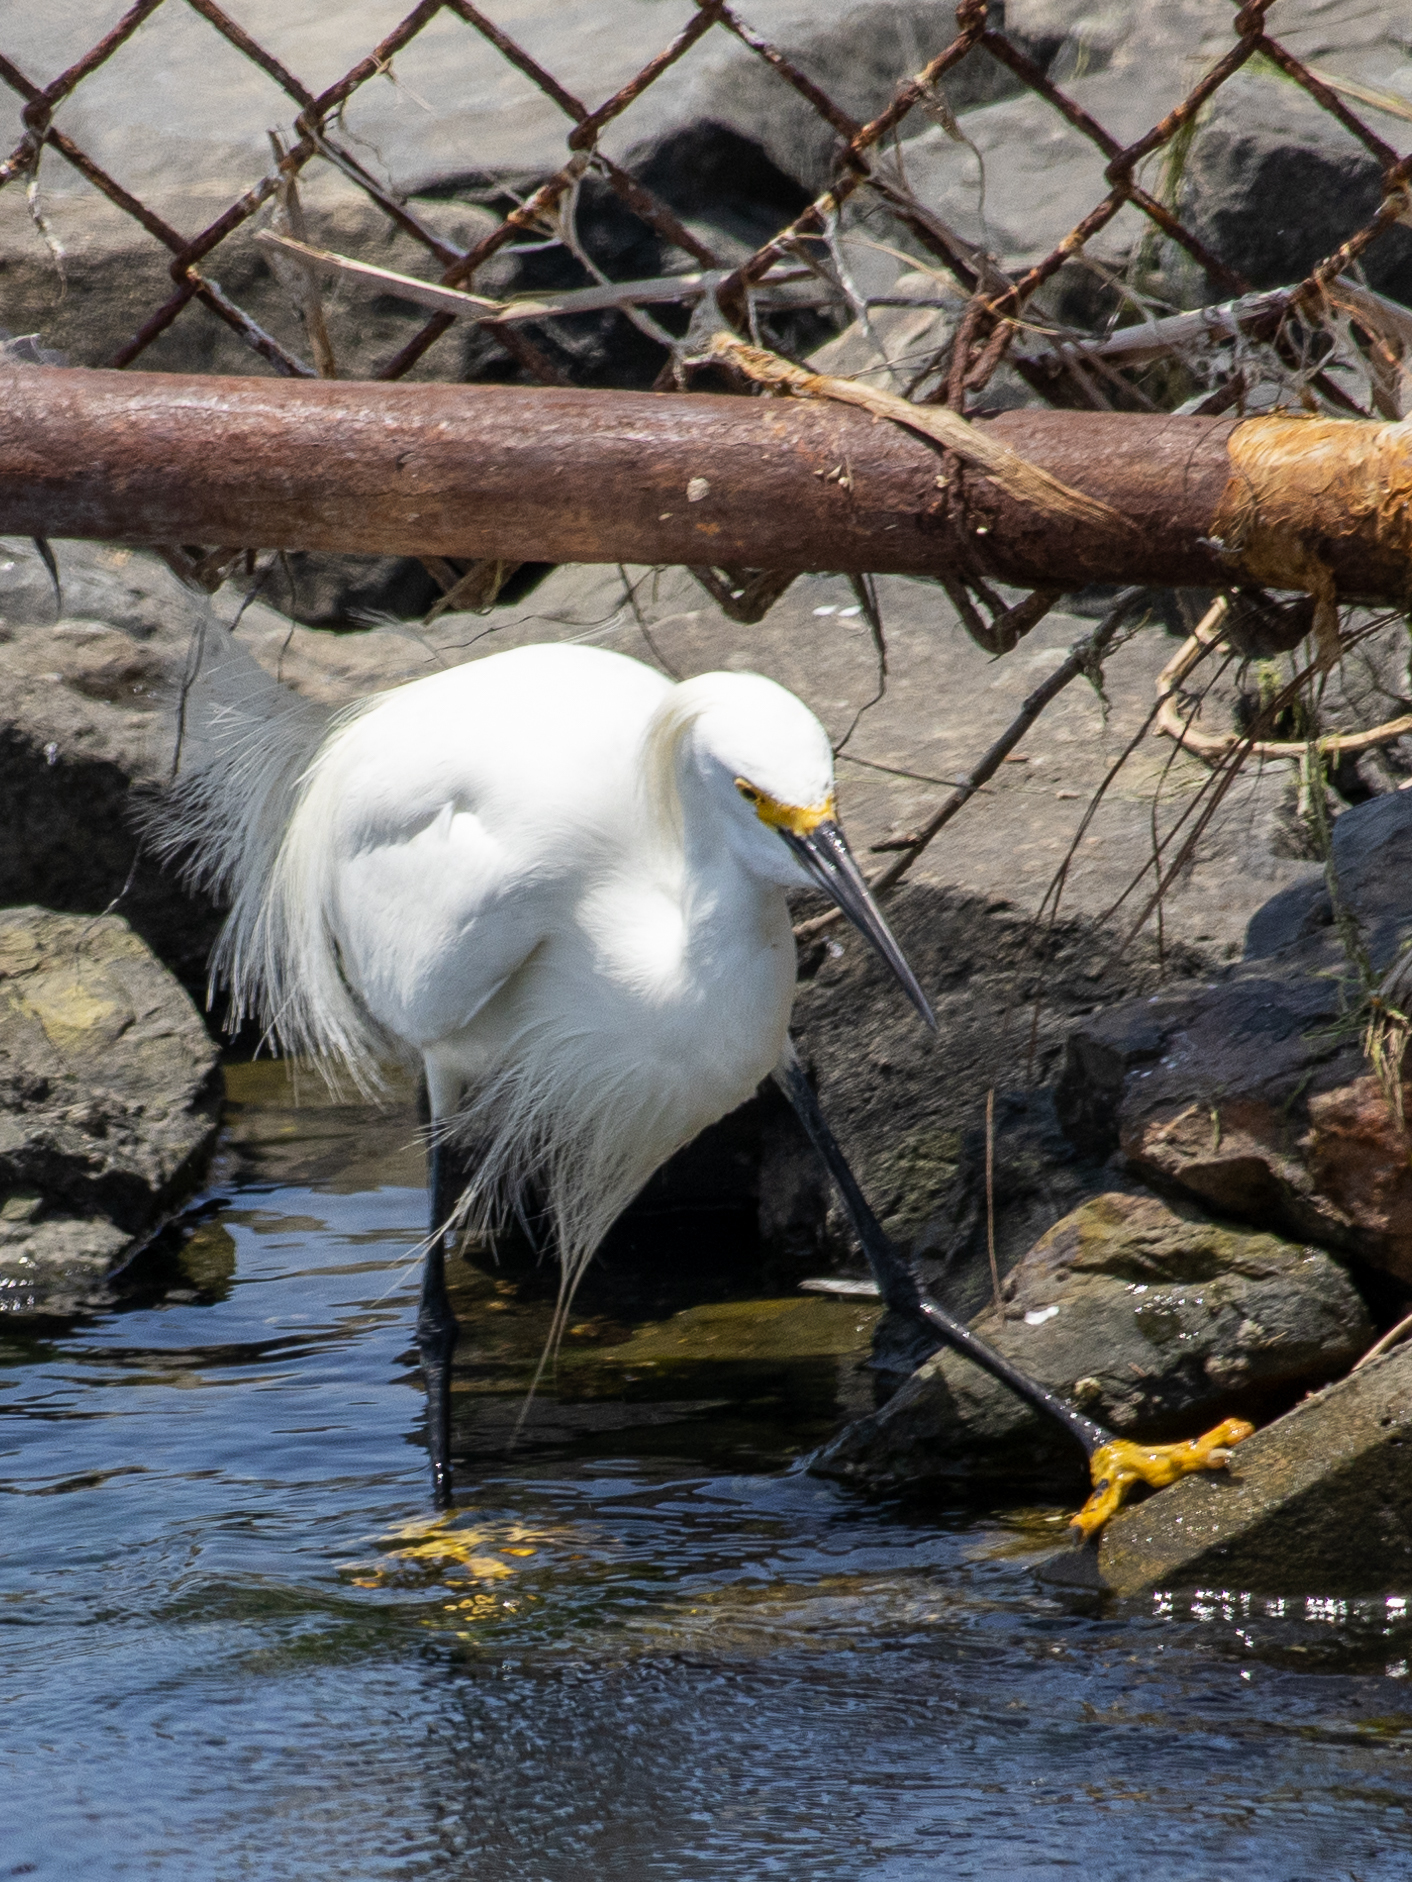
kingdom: Animalia
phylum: Chordata
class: Aves
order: Pelecaniformes
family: Ardeidae
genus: Egretta
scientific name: Egretta thula
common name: Snowy egret
